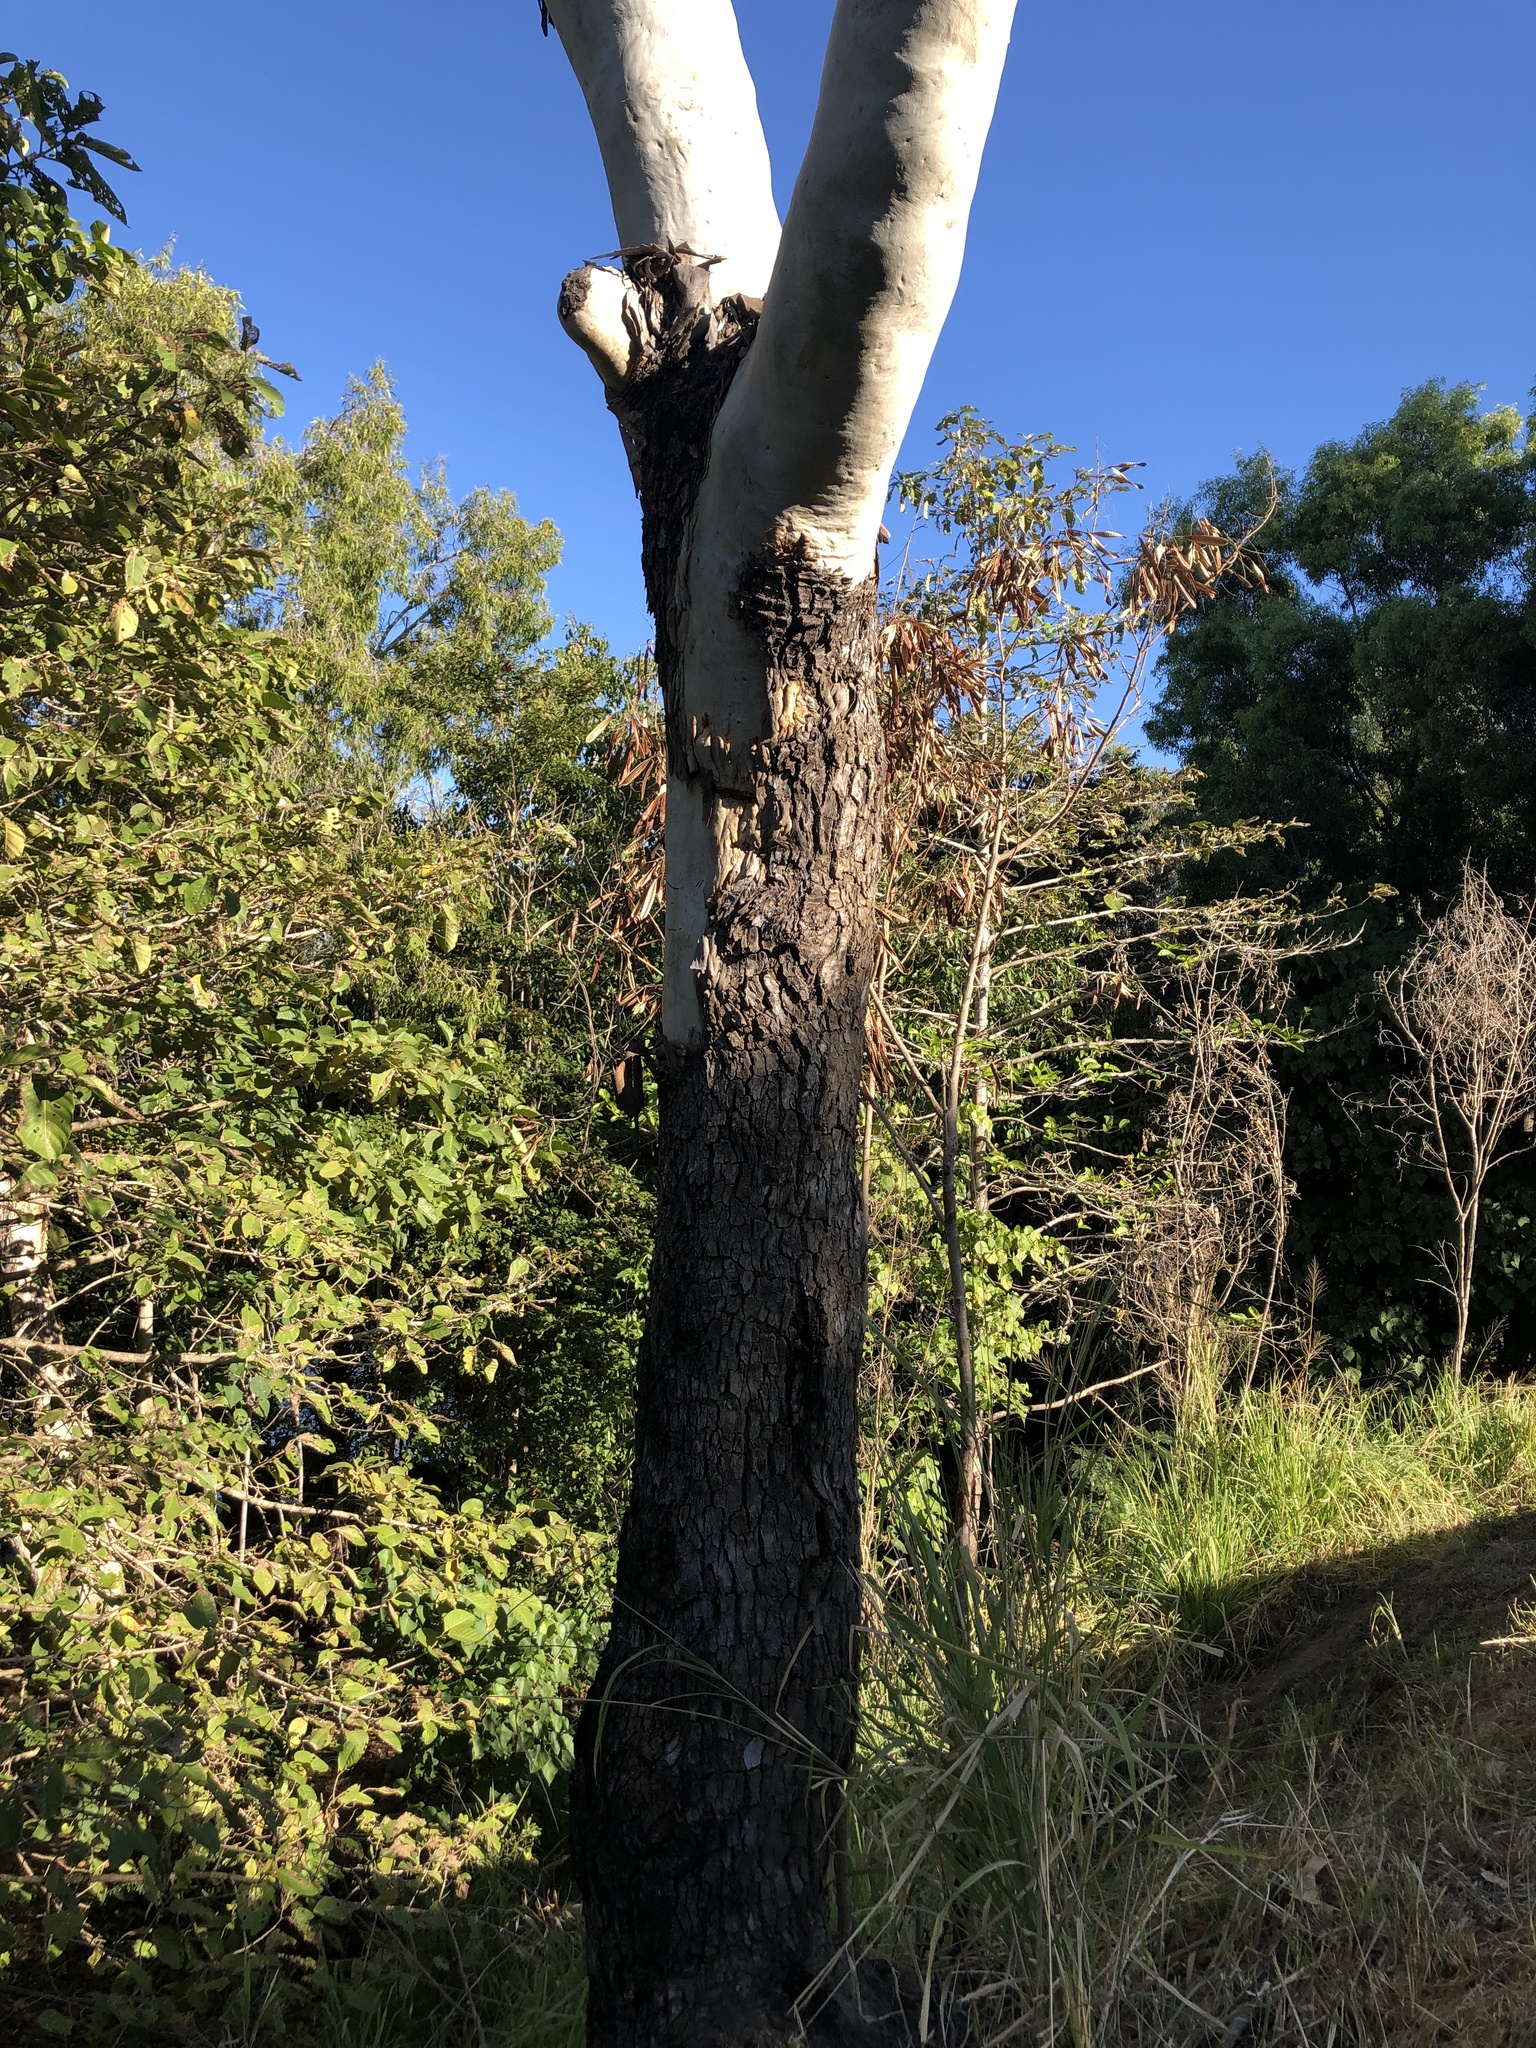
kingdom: Plantae
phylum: Tracheophyta
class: Magnoliopsida
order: Myrtales
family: Myrtaceae
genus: Corymbia
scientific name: Corymbia tessellaris
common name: Carbeen
